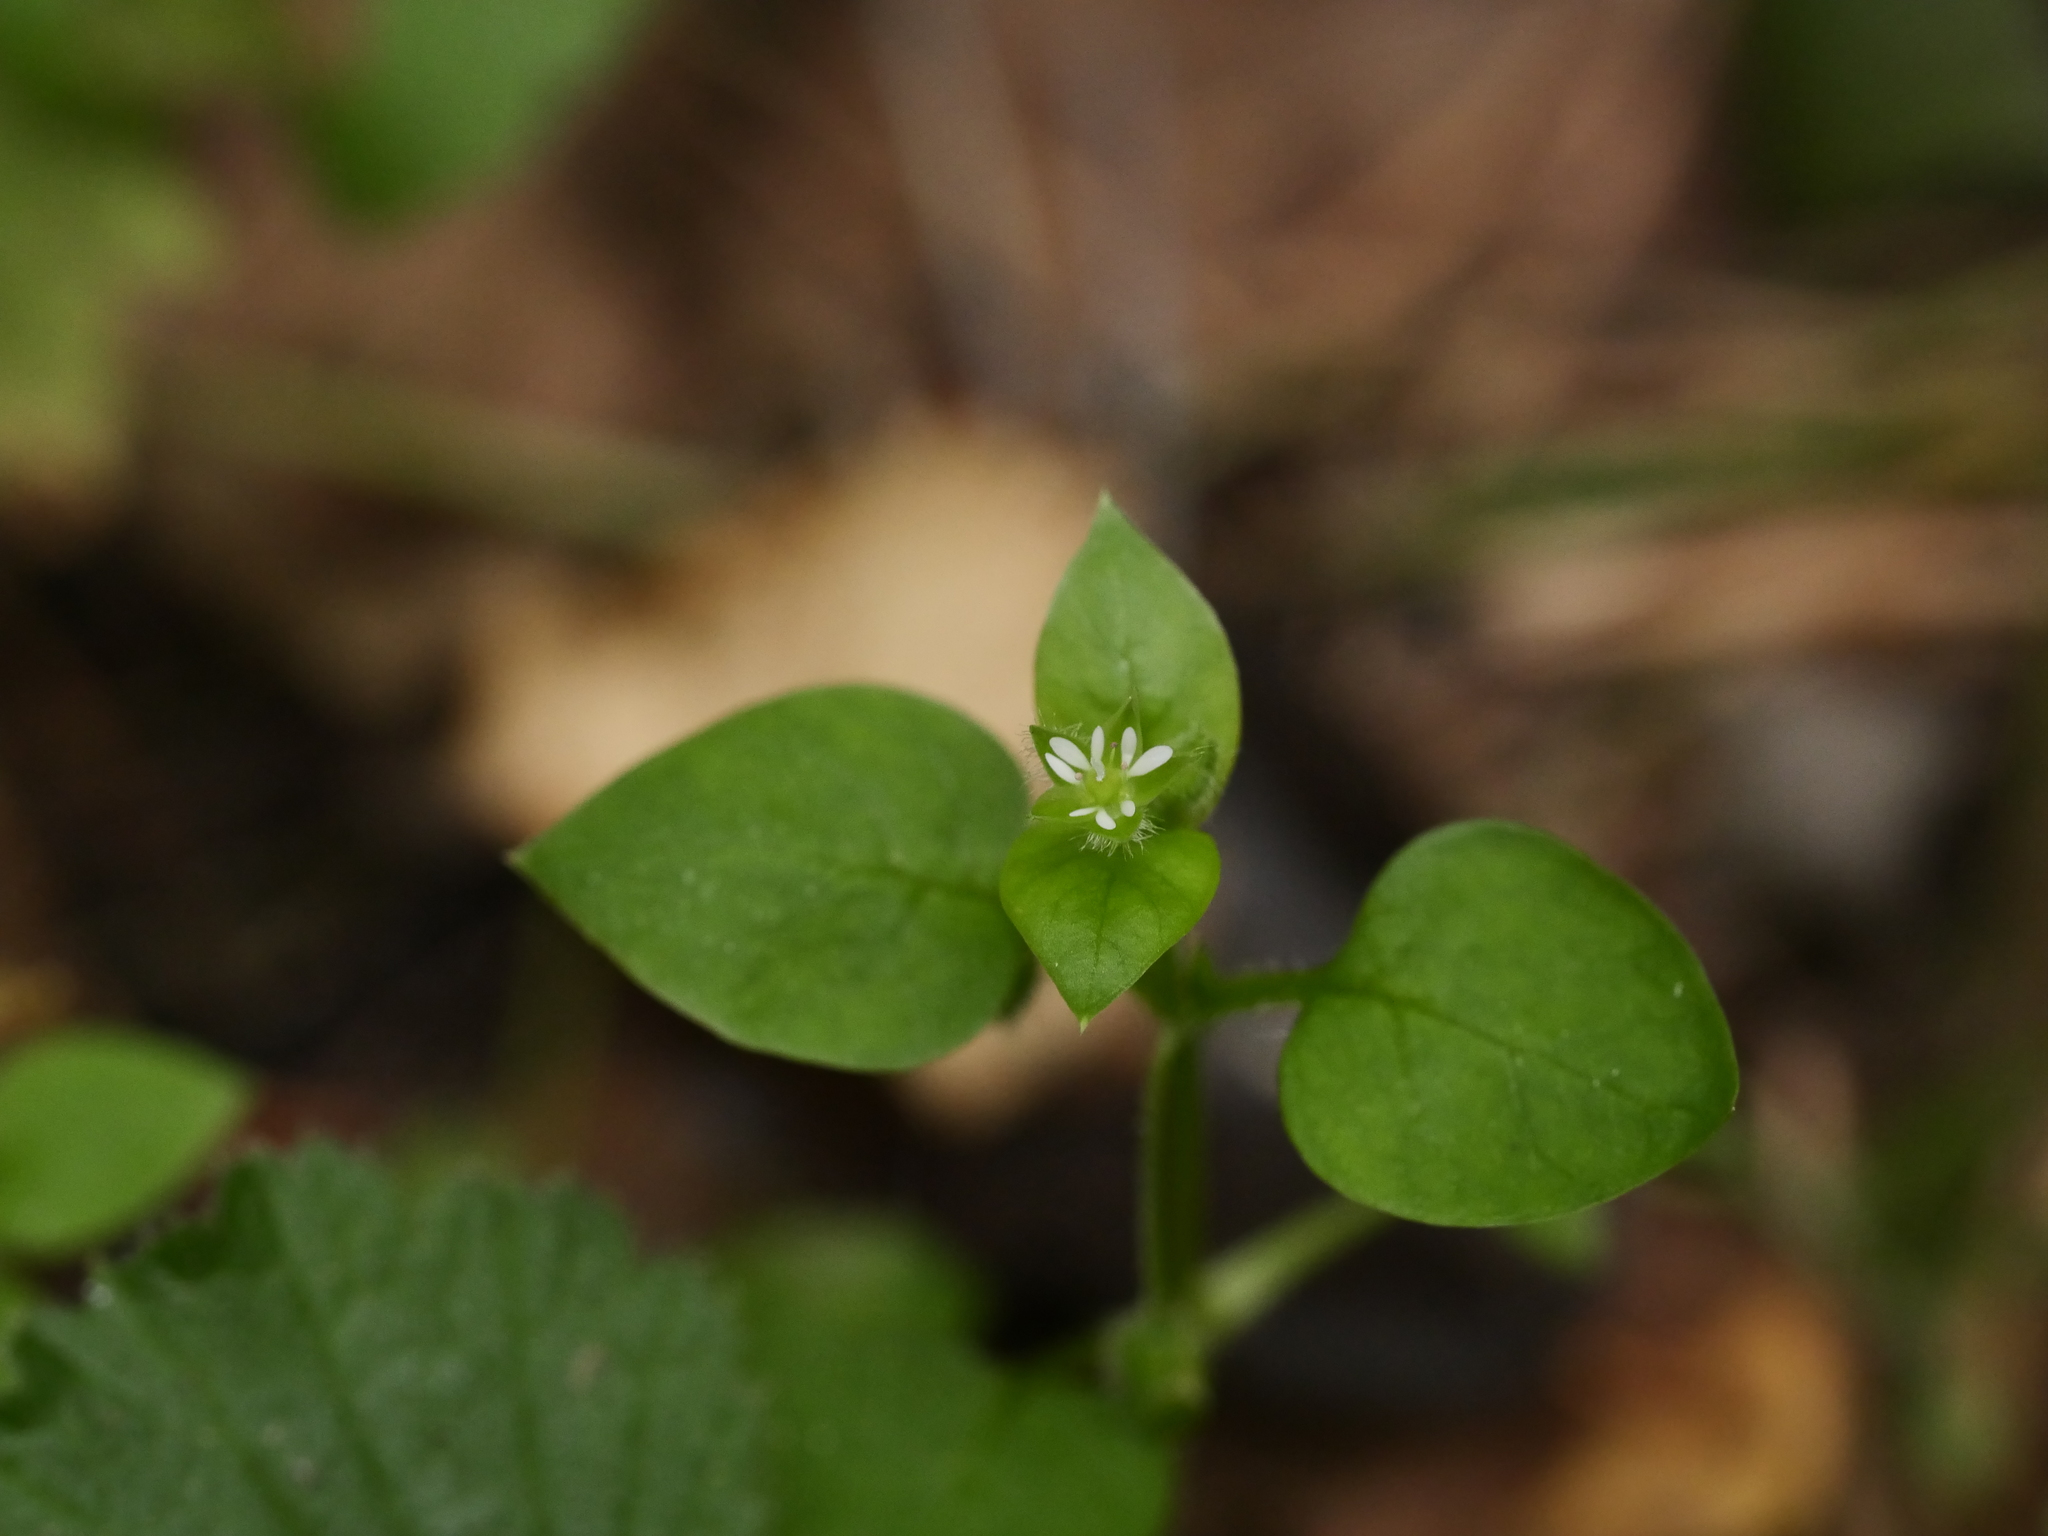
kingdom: Plantae
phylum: Tracheophyta
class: Magnoliopsida
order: Caryophyllales
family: Caryophyllaceae
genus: Stellaria
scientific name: Stellaria media
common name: Common chickweed
